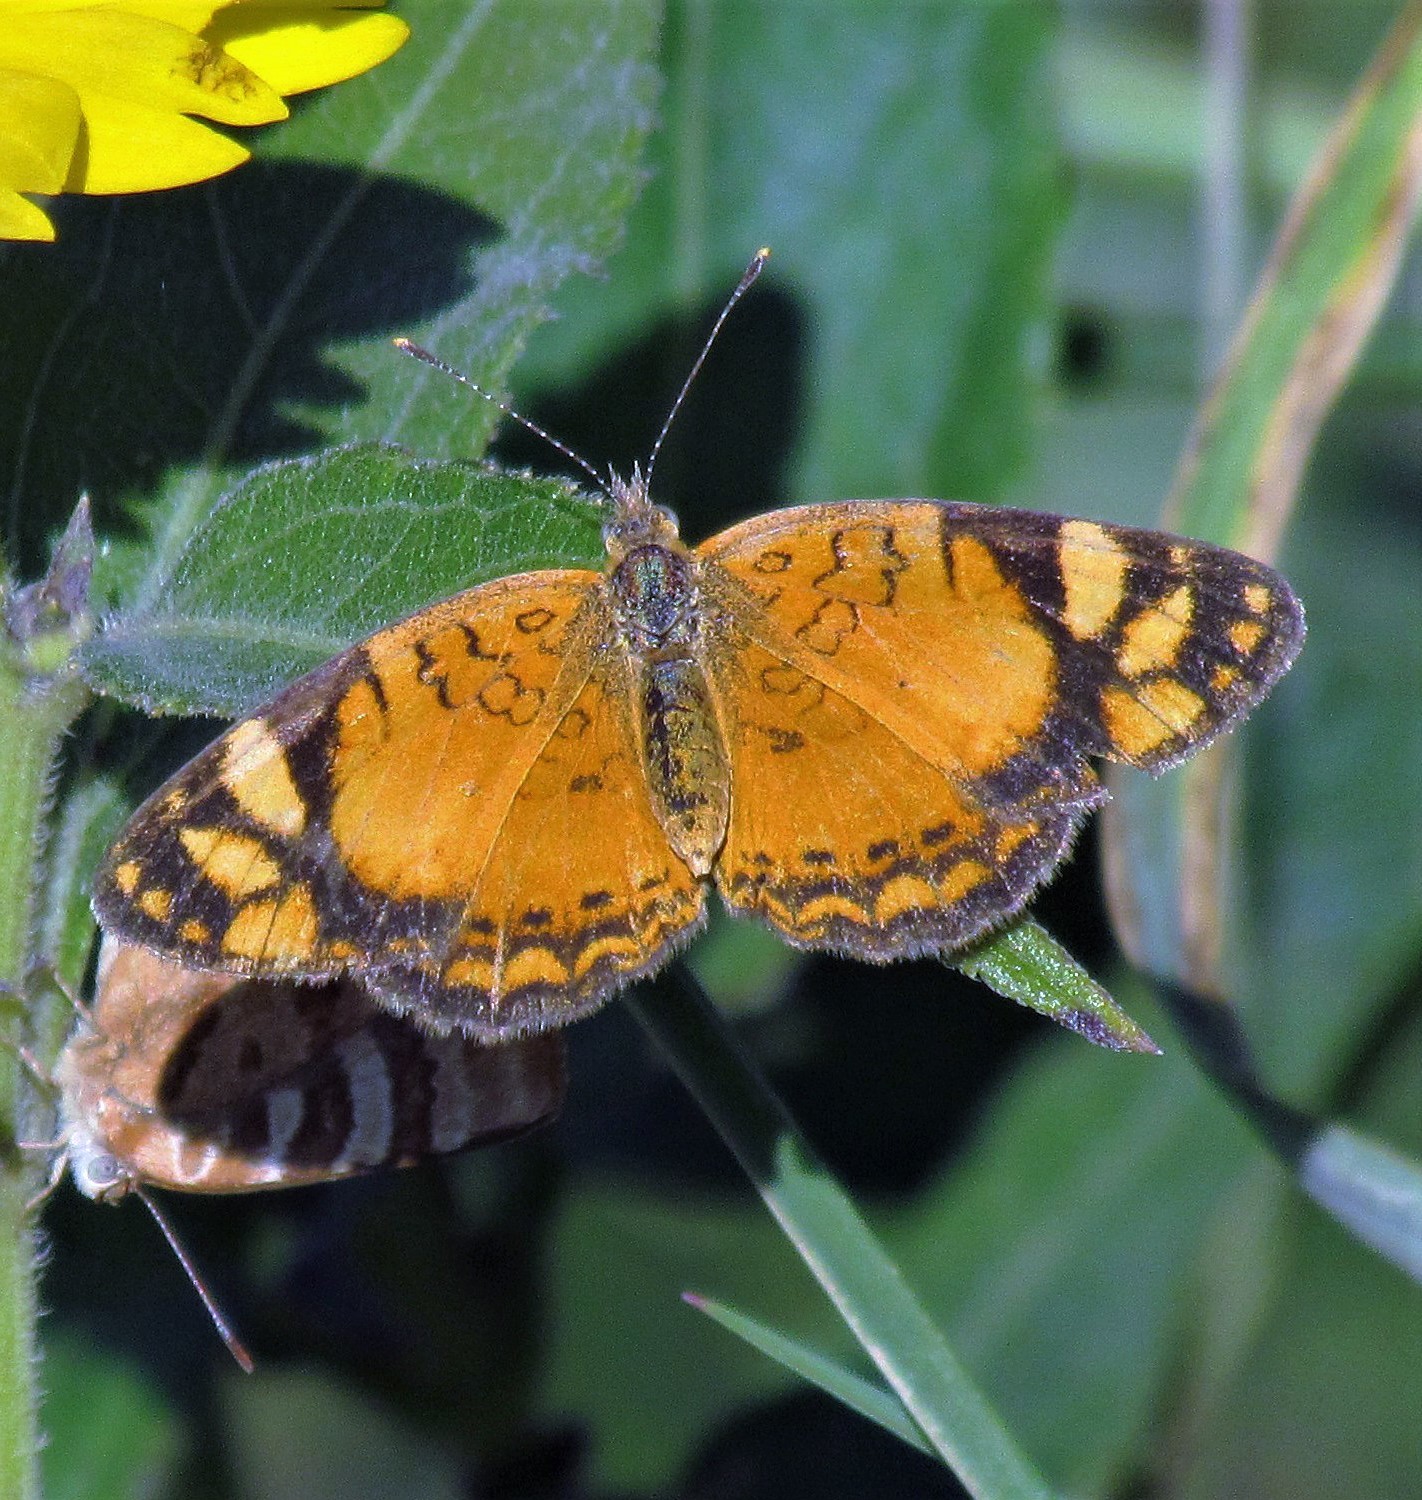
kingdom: Animalia
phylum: Arthropoda
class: Insecta
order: Lepidoptera
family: Nymphalidae
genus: Tegosa
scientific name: Tegosa orobia
